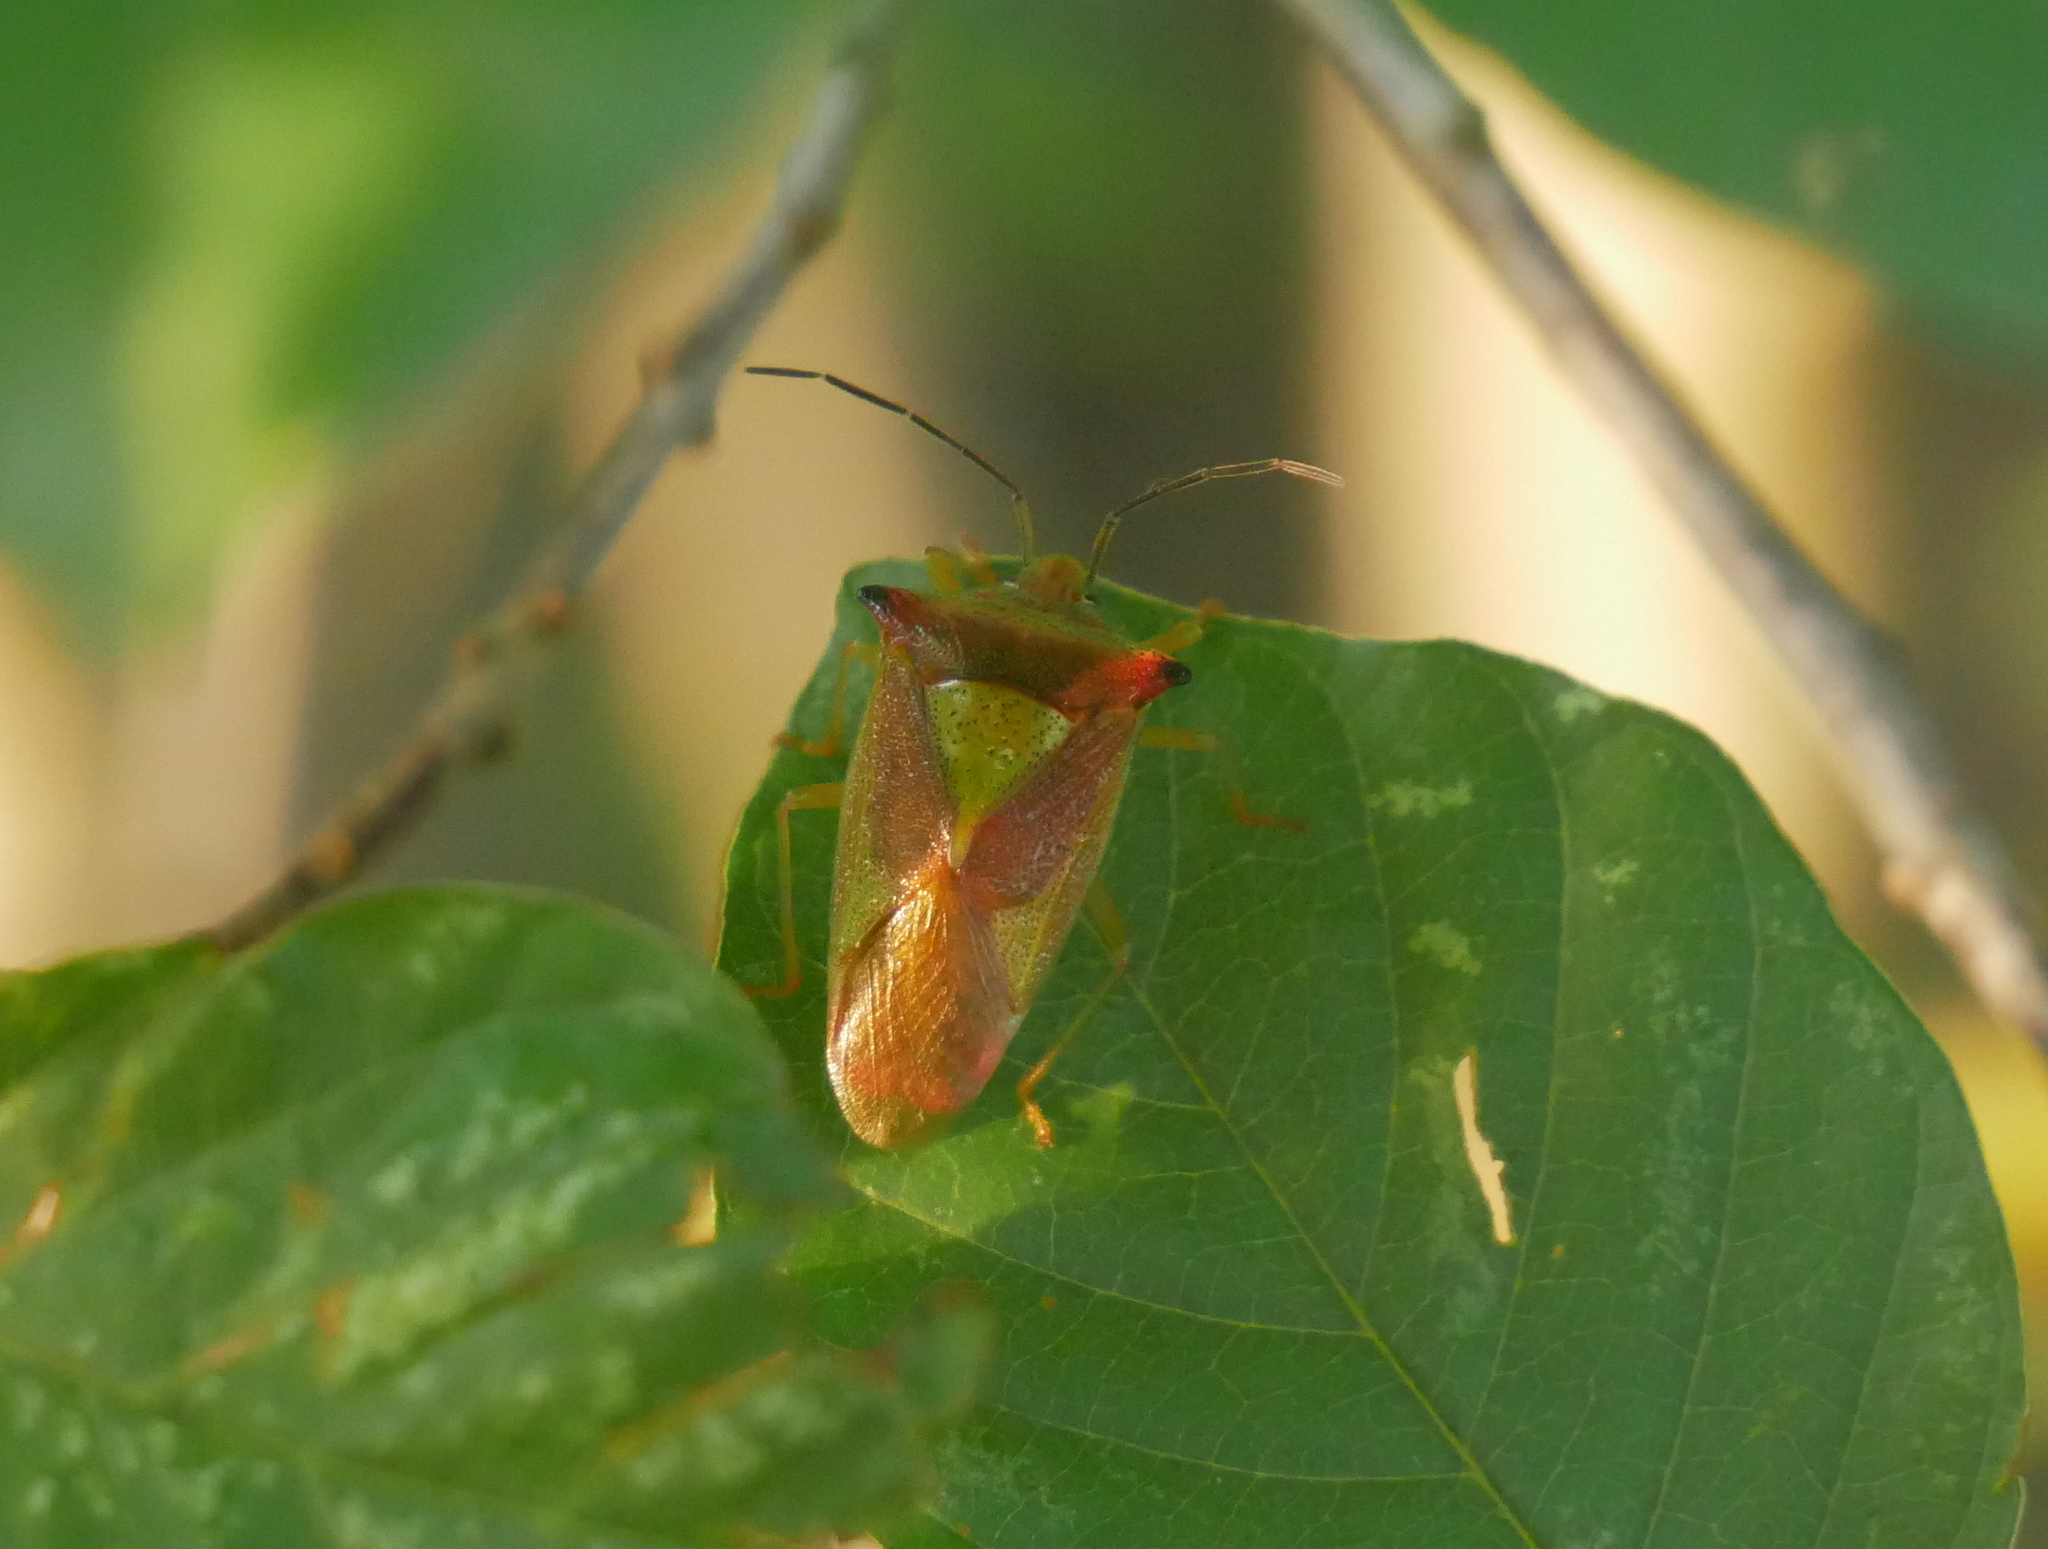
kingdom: Animalia
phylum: Arthropoda
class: Insecta
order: Hemiptera
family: Acanthosomatidae
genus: Acanthosoma
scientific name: Acanthosoma haemorrhoidale
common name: Hawthorn shieldbug
